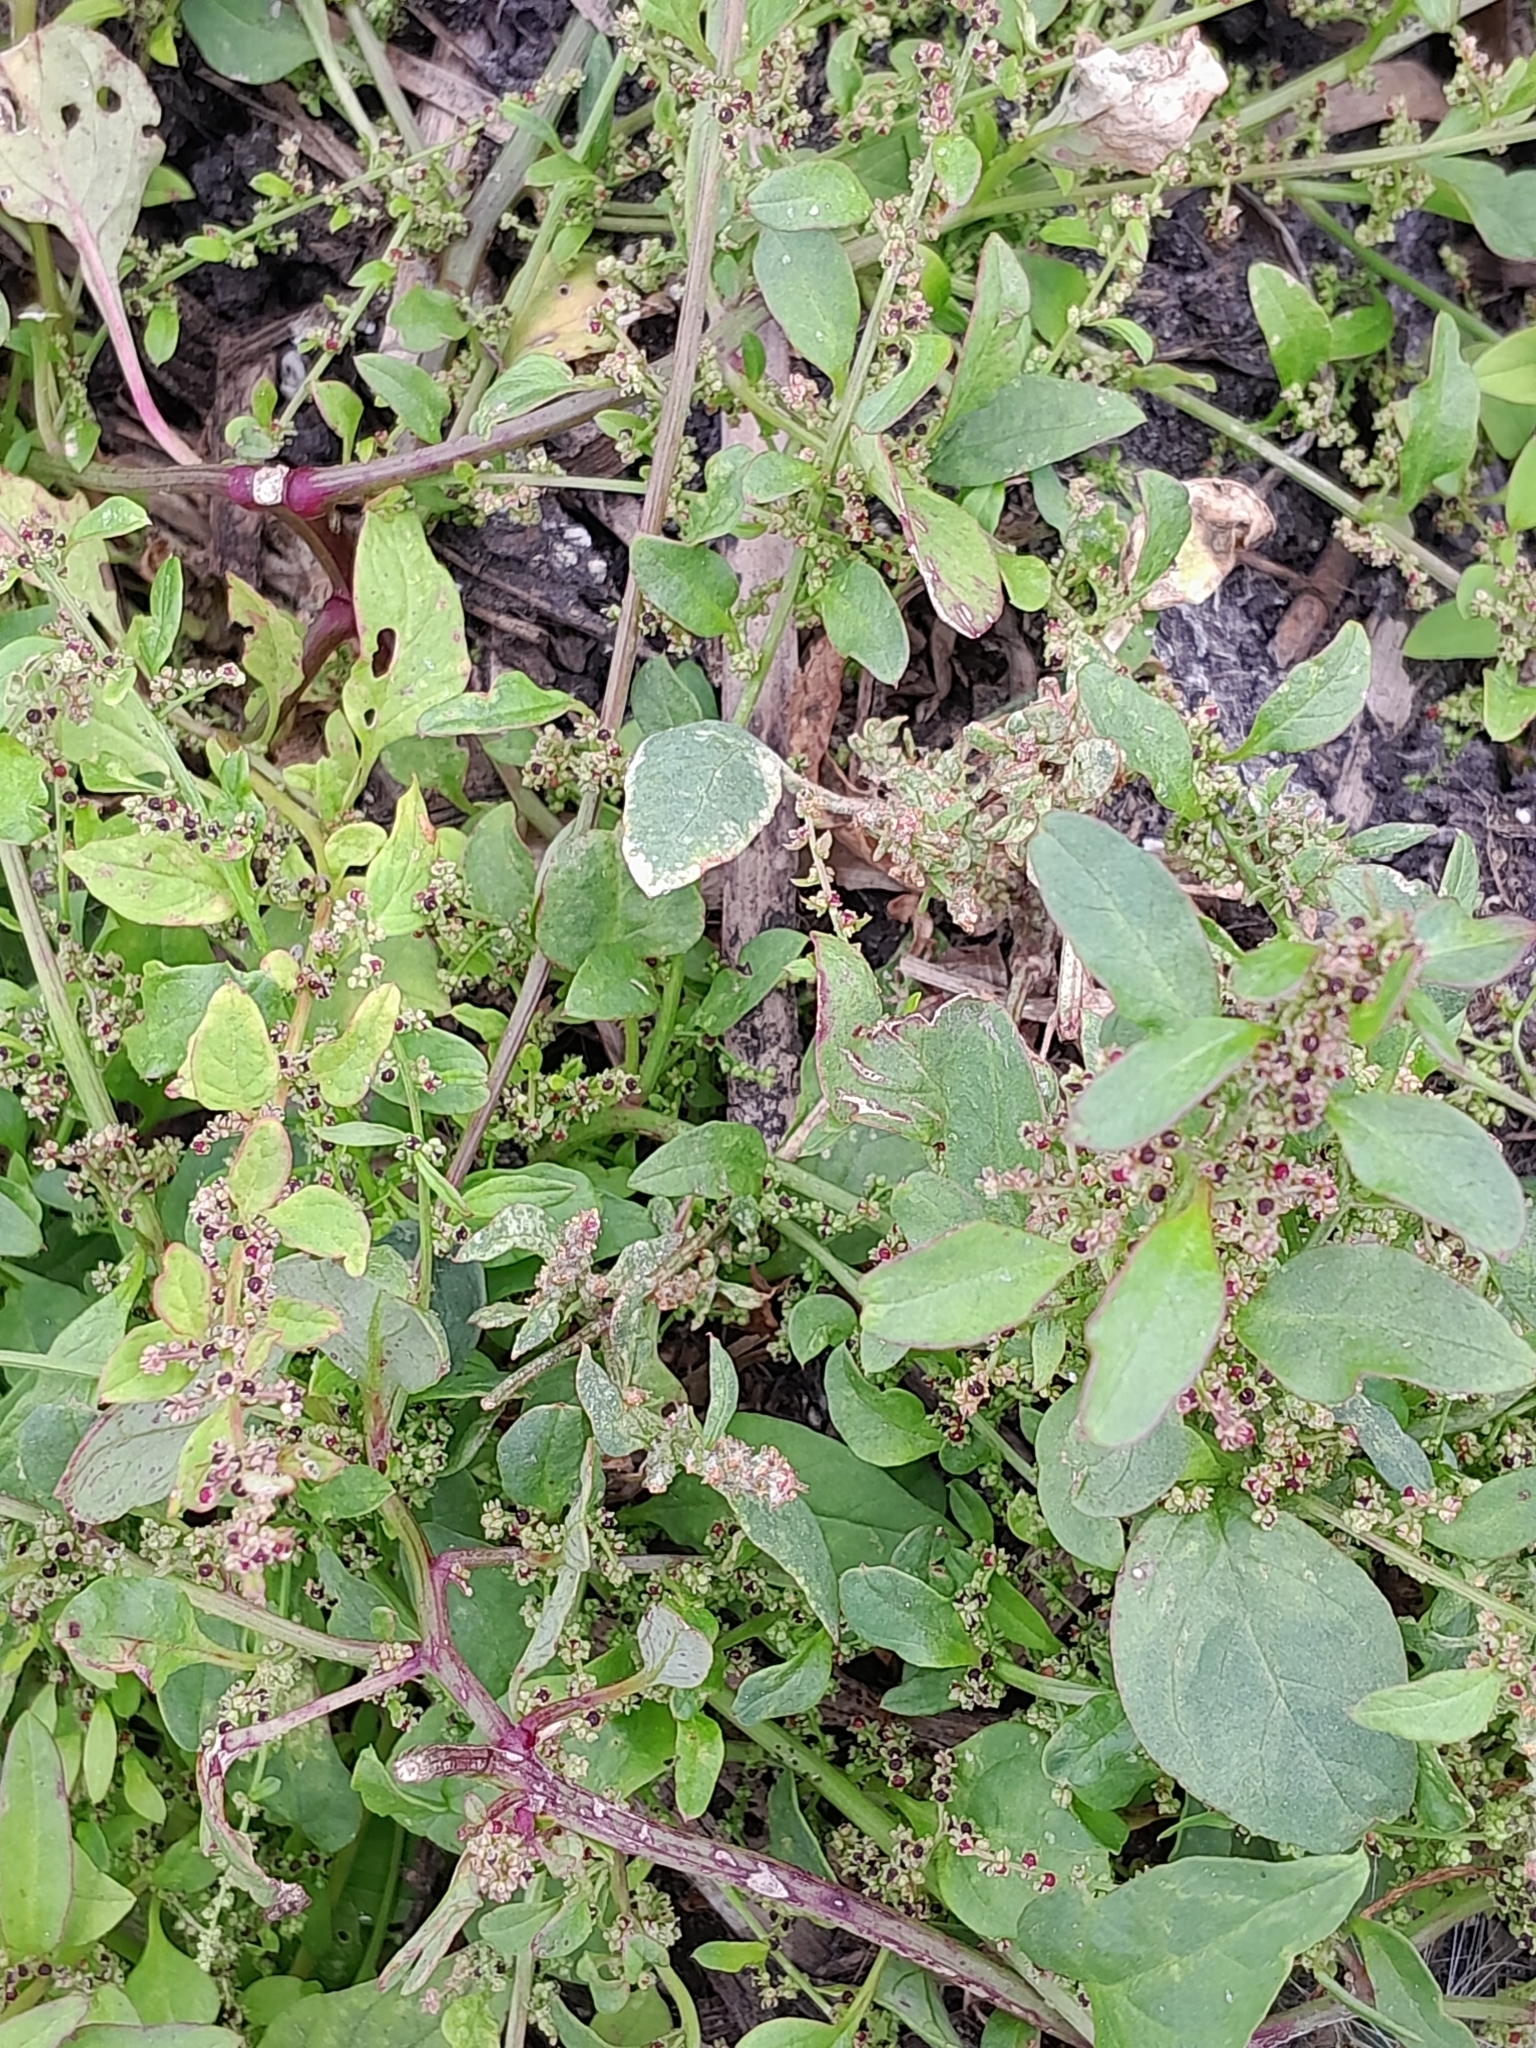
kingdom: Plantae
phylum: Tracheophyta
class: Magnoliopsida
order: Caryophyllales
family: Amaranthaceae
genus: Lipandra
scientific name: Lipandra polysperma
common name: Many-seed goosefoot
